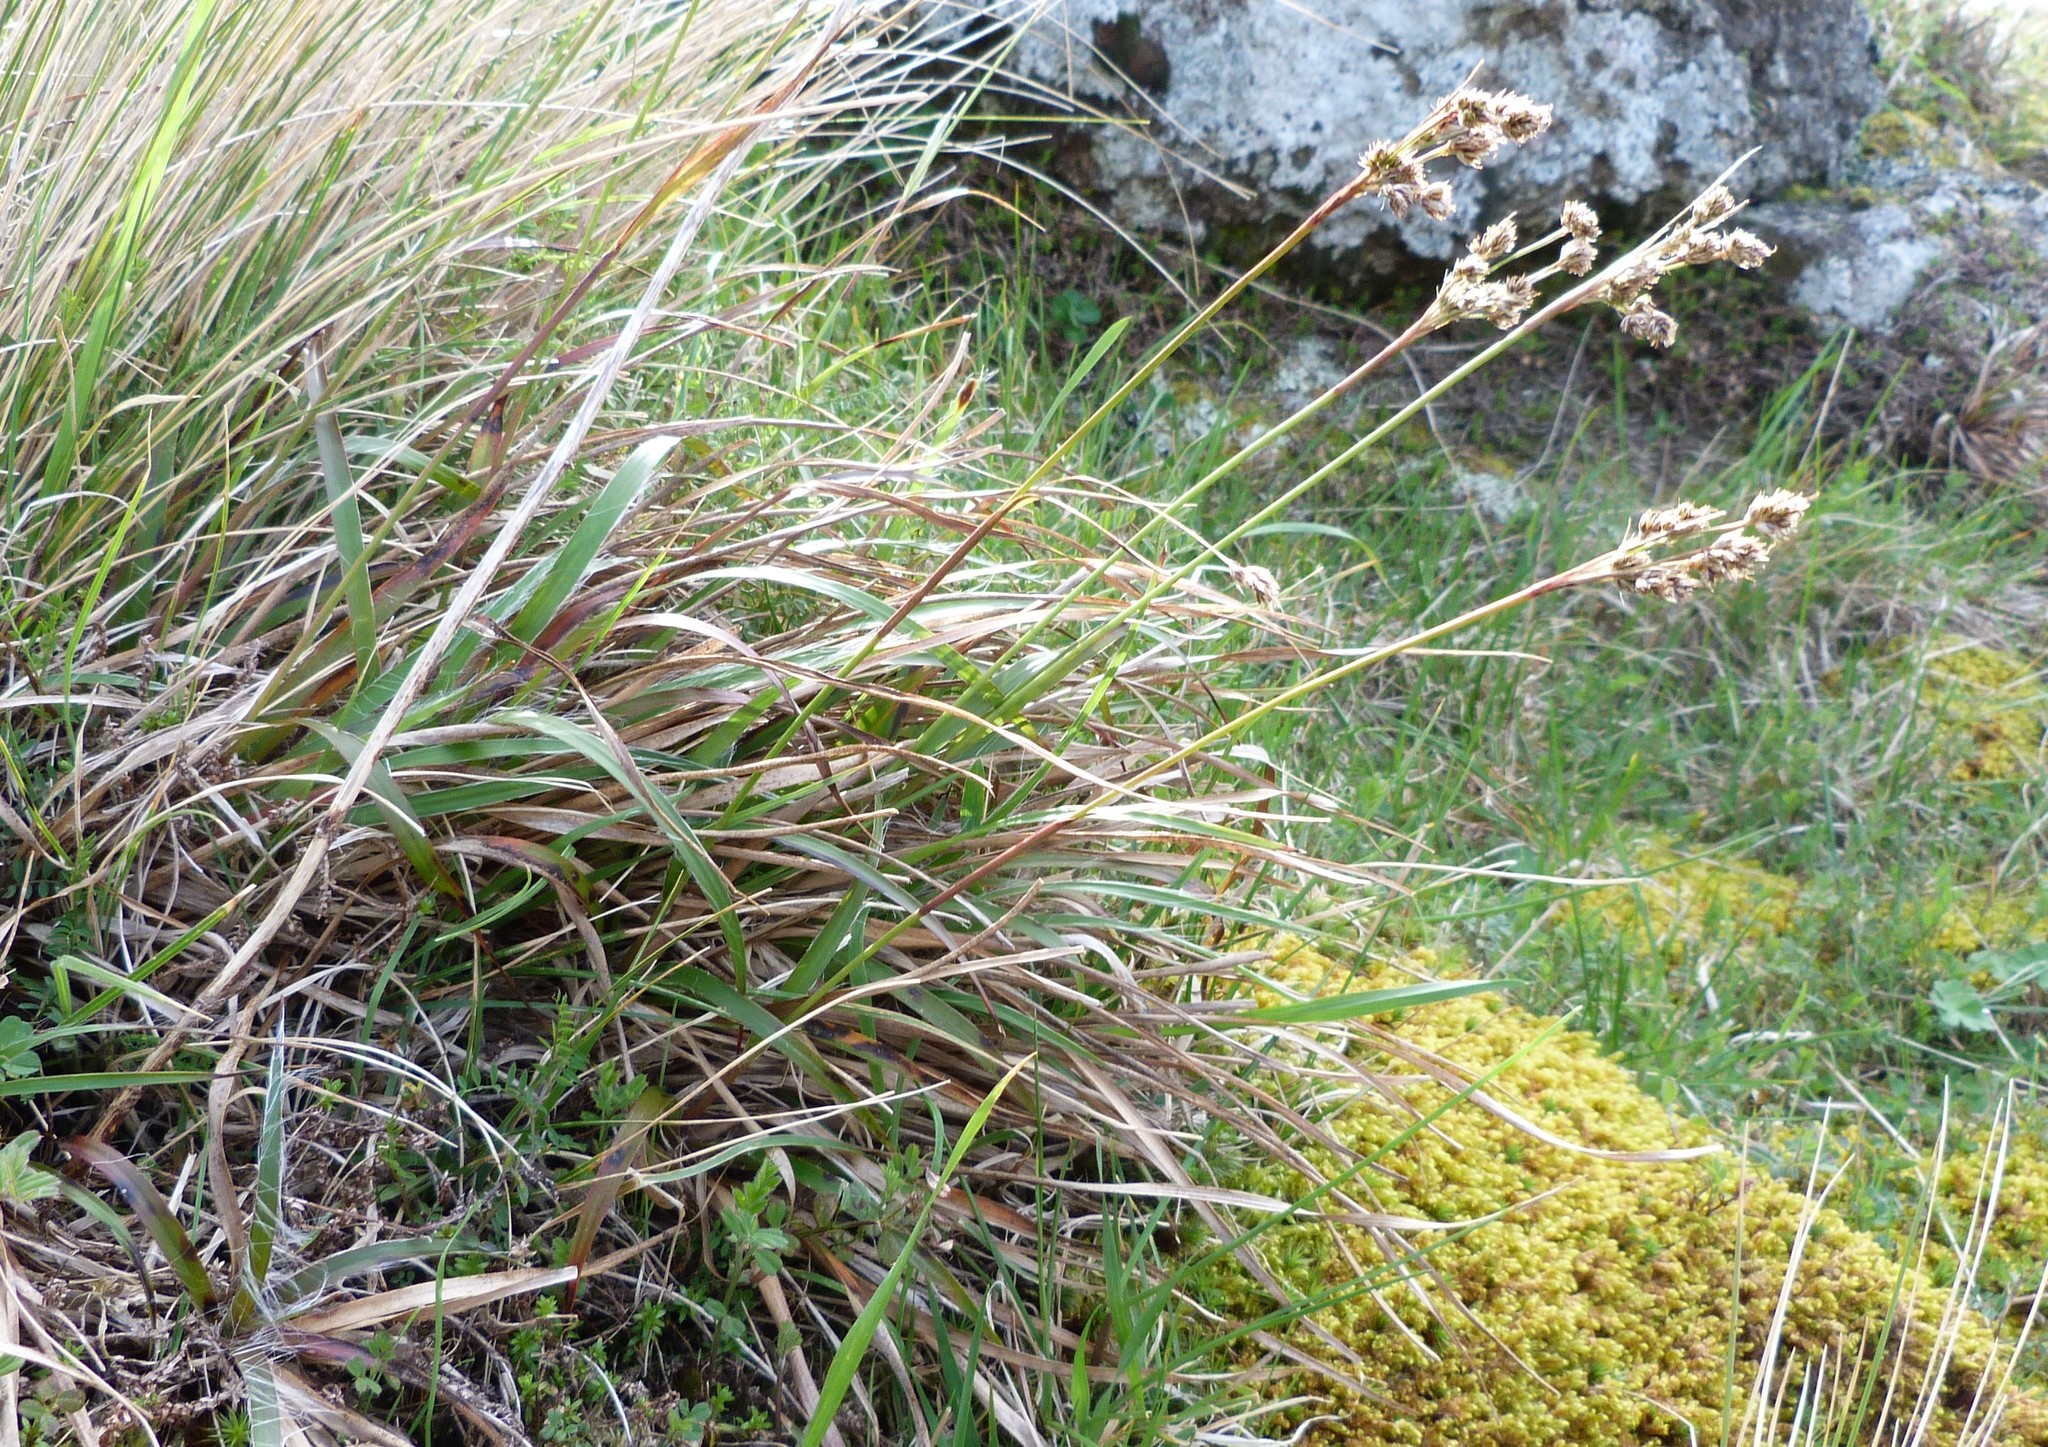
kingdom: Plantae
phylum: Tracheophyta
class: Liliopsida
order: Poales
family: Juncaceae
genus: Luzula
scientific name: Luzula banksiana
